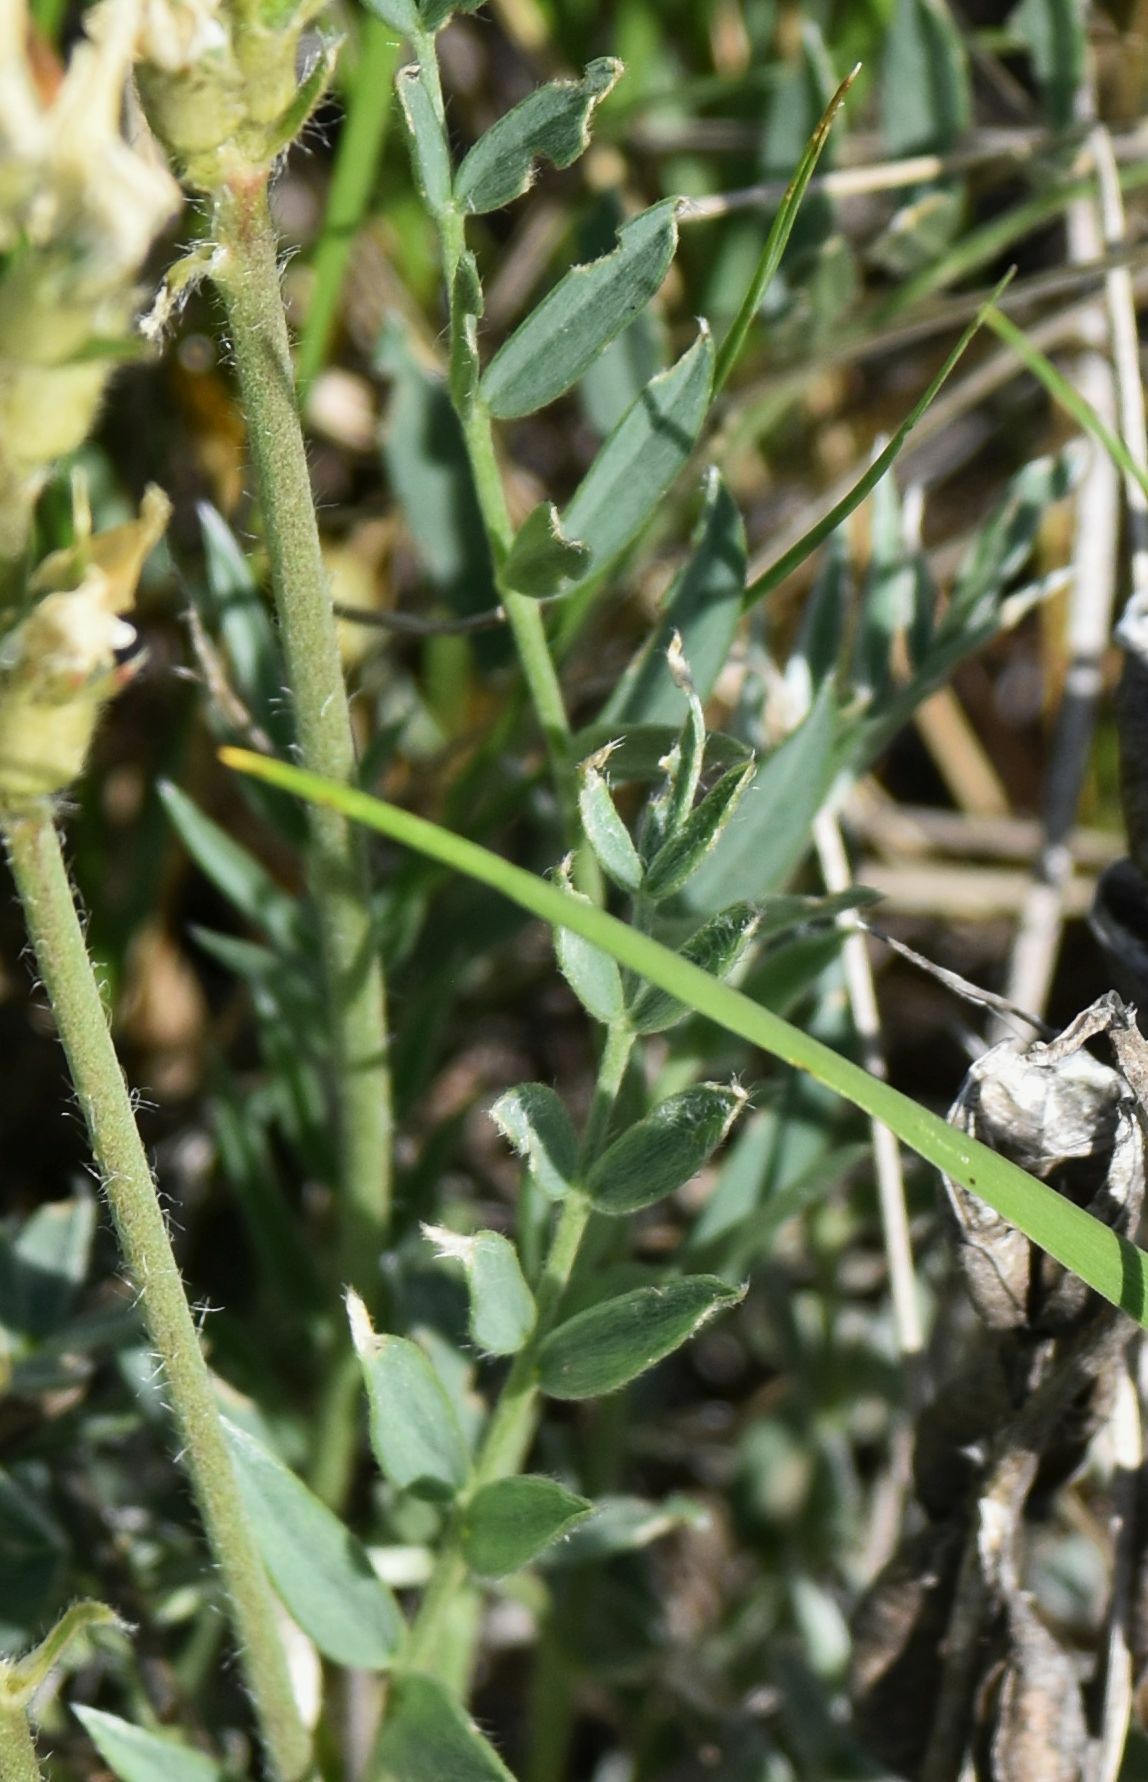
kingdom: Plantae
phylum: Tracheophyta
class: Magnoliopsida
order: Fabales
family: Fabaceae
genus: Oxytropis
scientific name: Oxytropis sericea
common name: Silky locoweed
